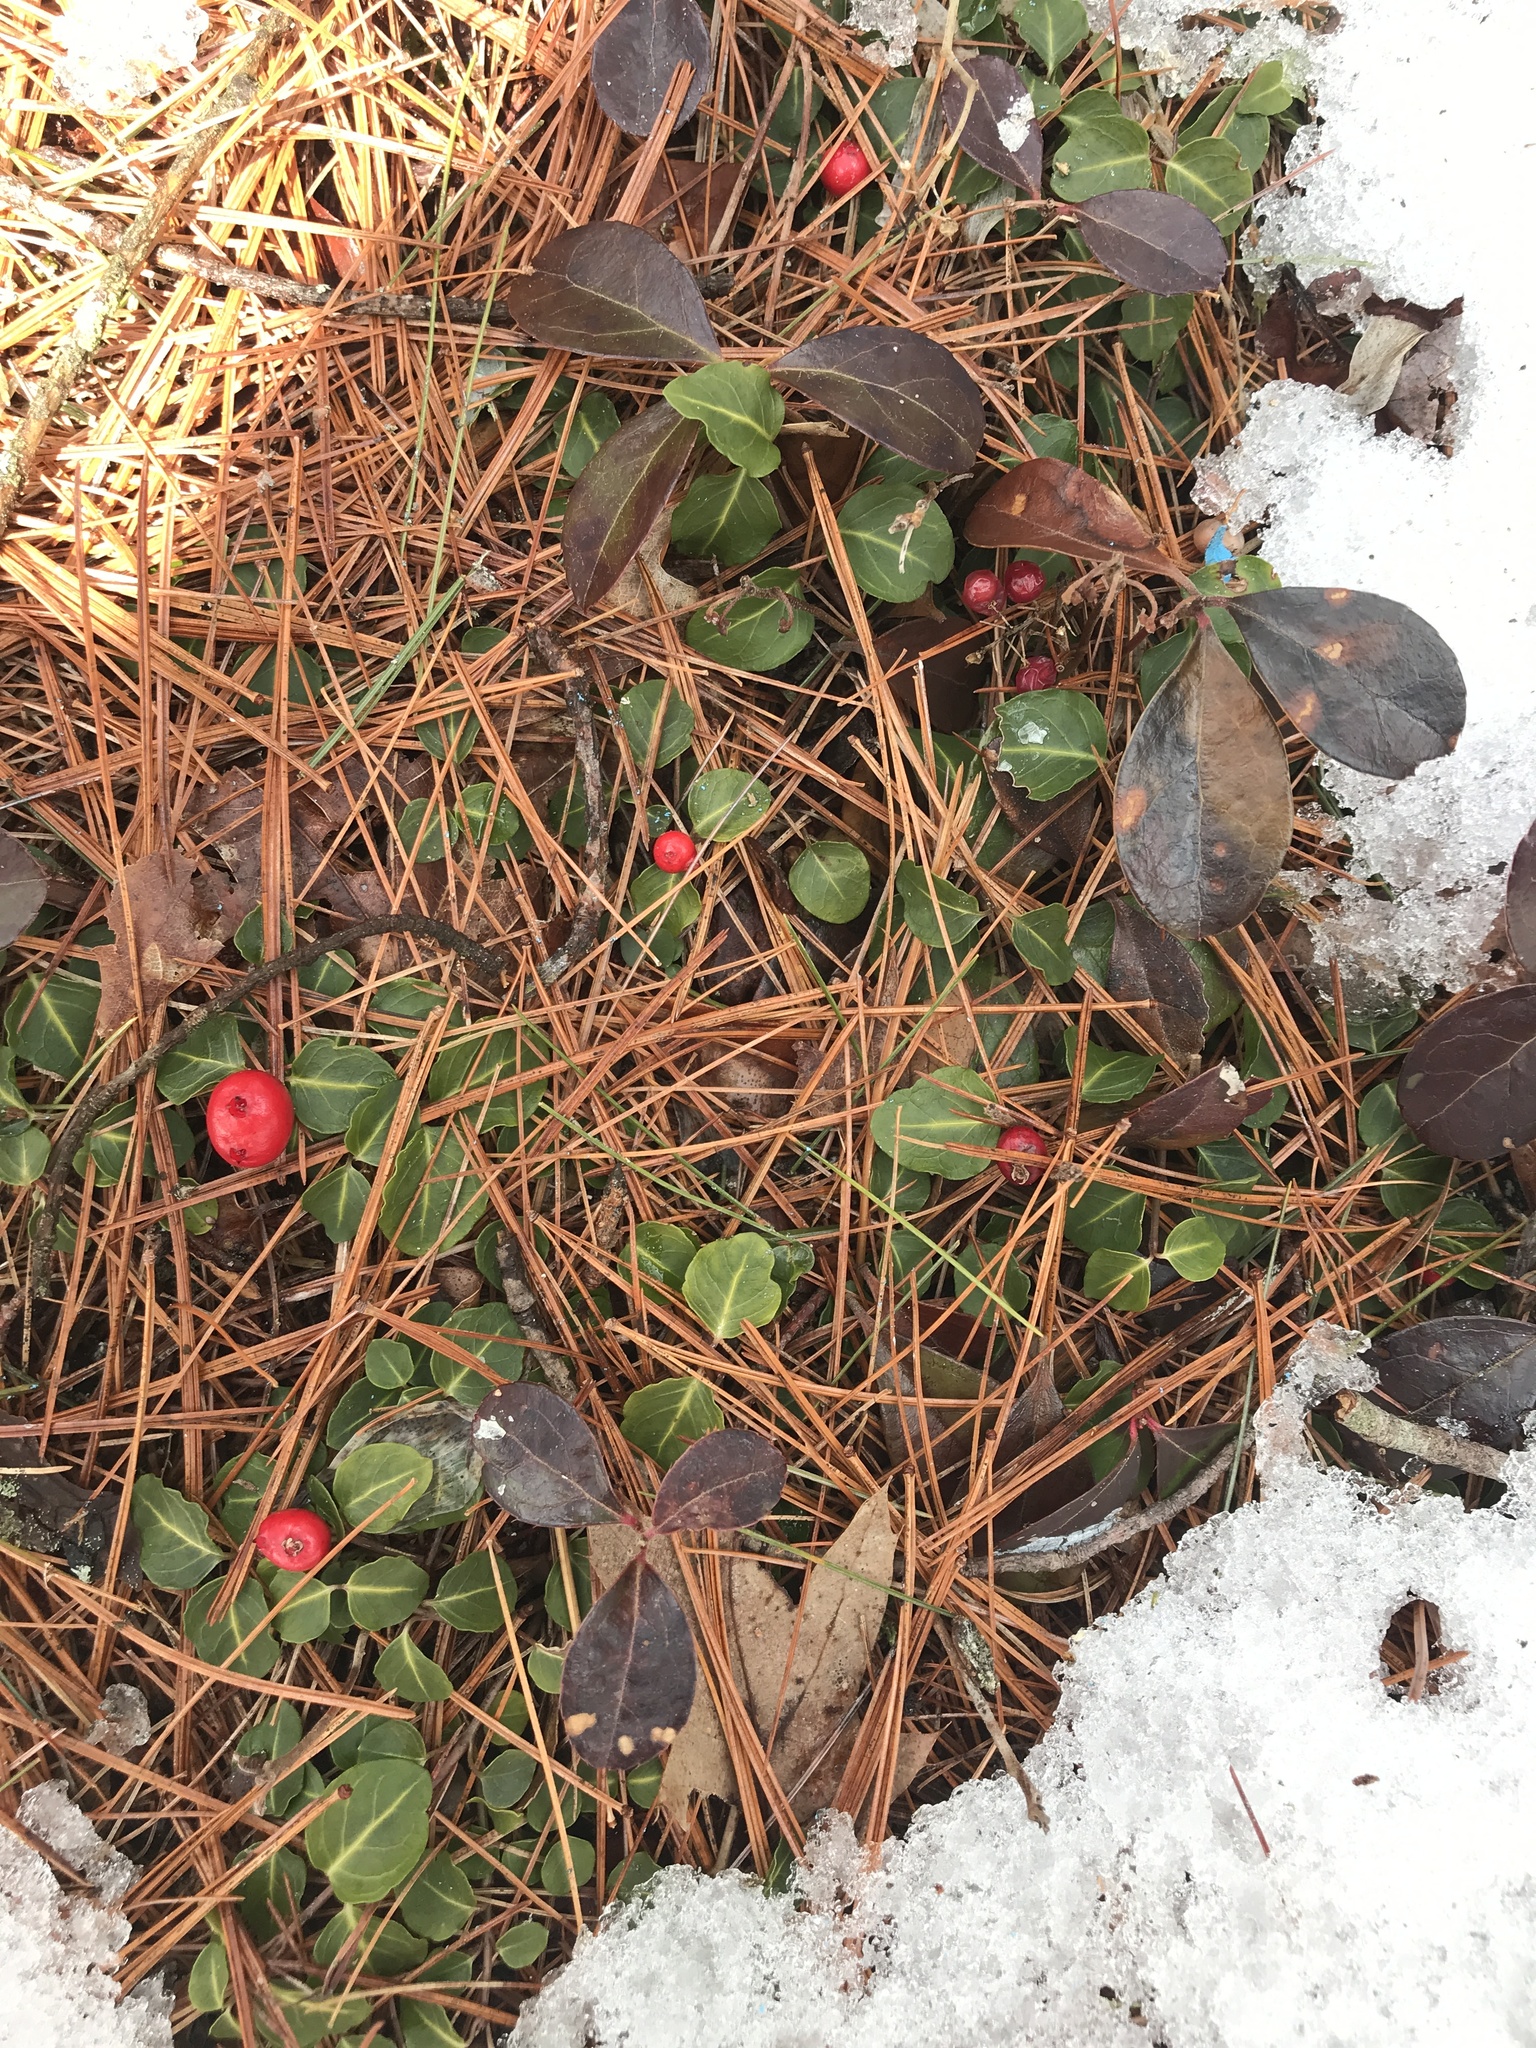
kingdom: Plantae
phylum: Tracheophyta
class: Magnoliopsida
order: Gentianales
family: Rubiaceae
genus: Mitchella
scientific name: Mitchella repens
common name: Partridge-berry
